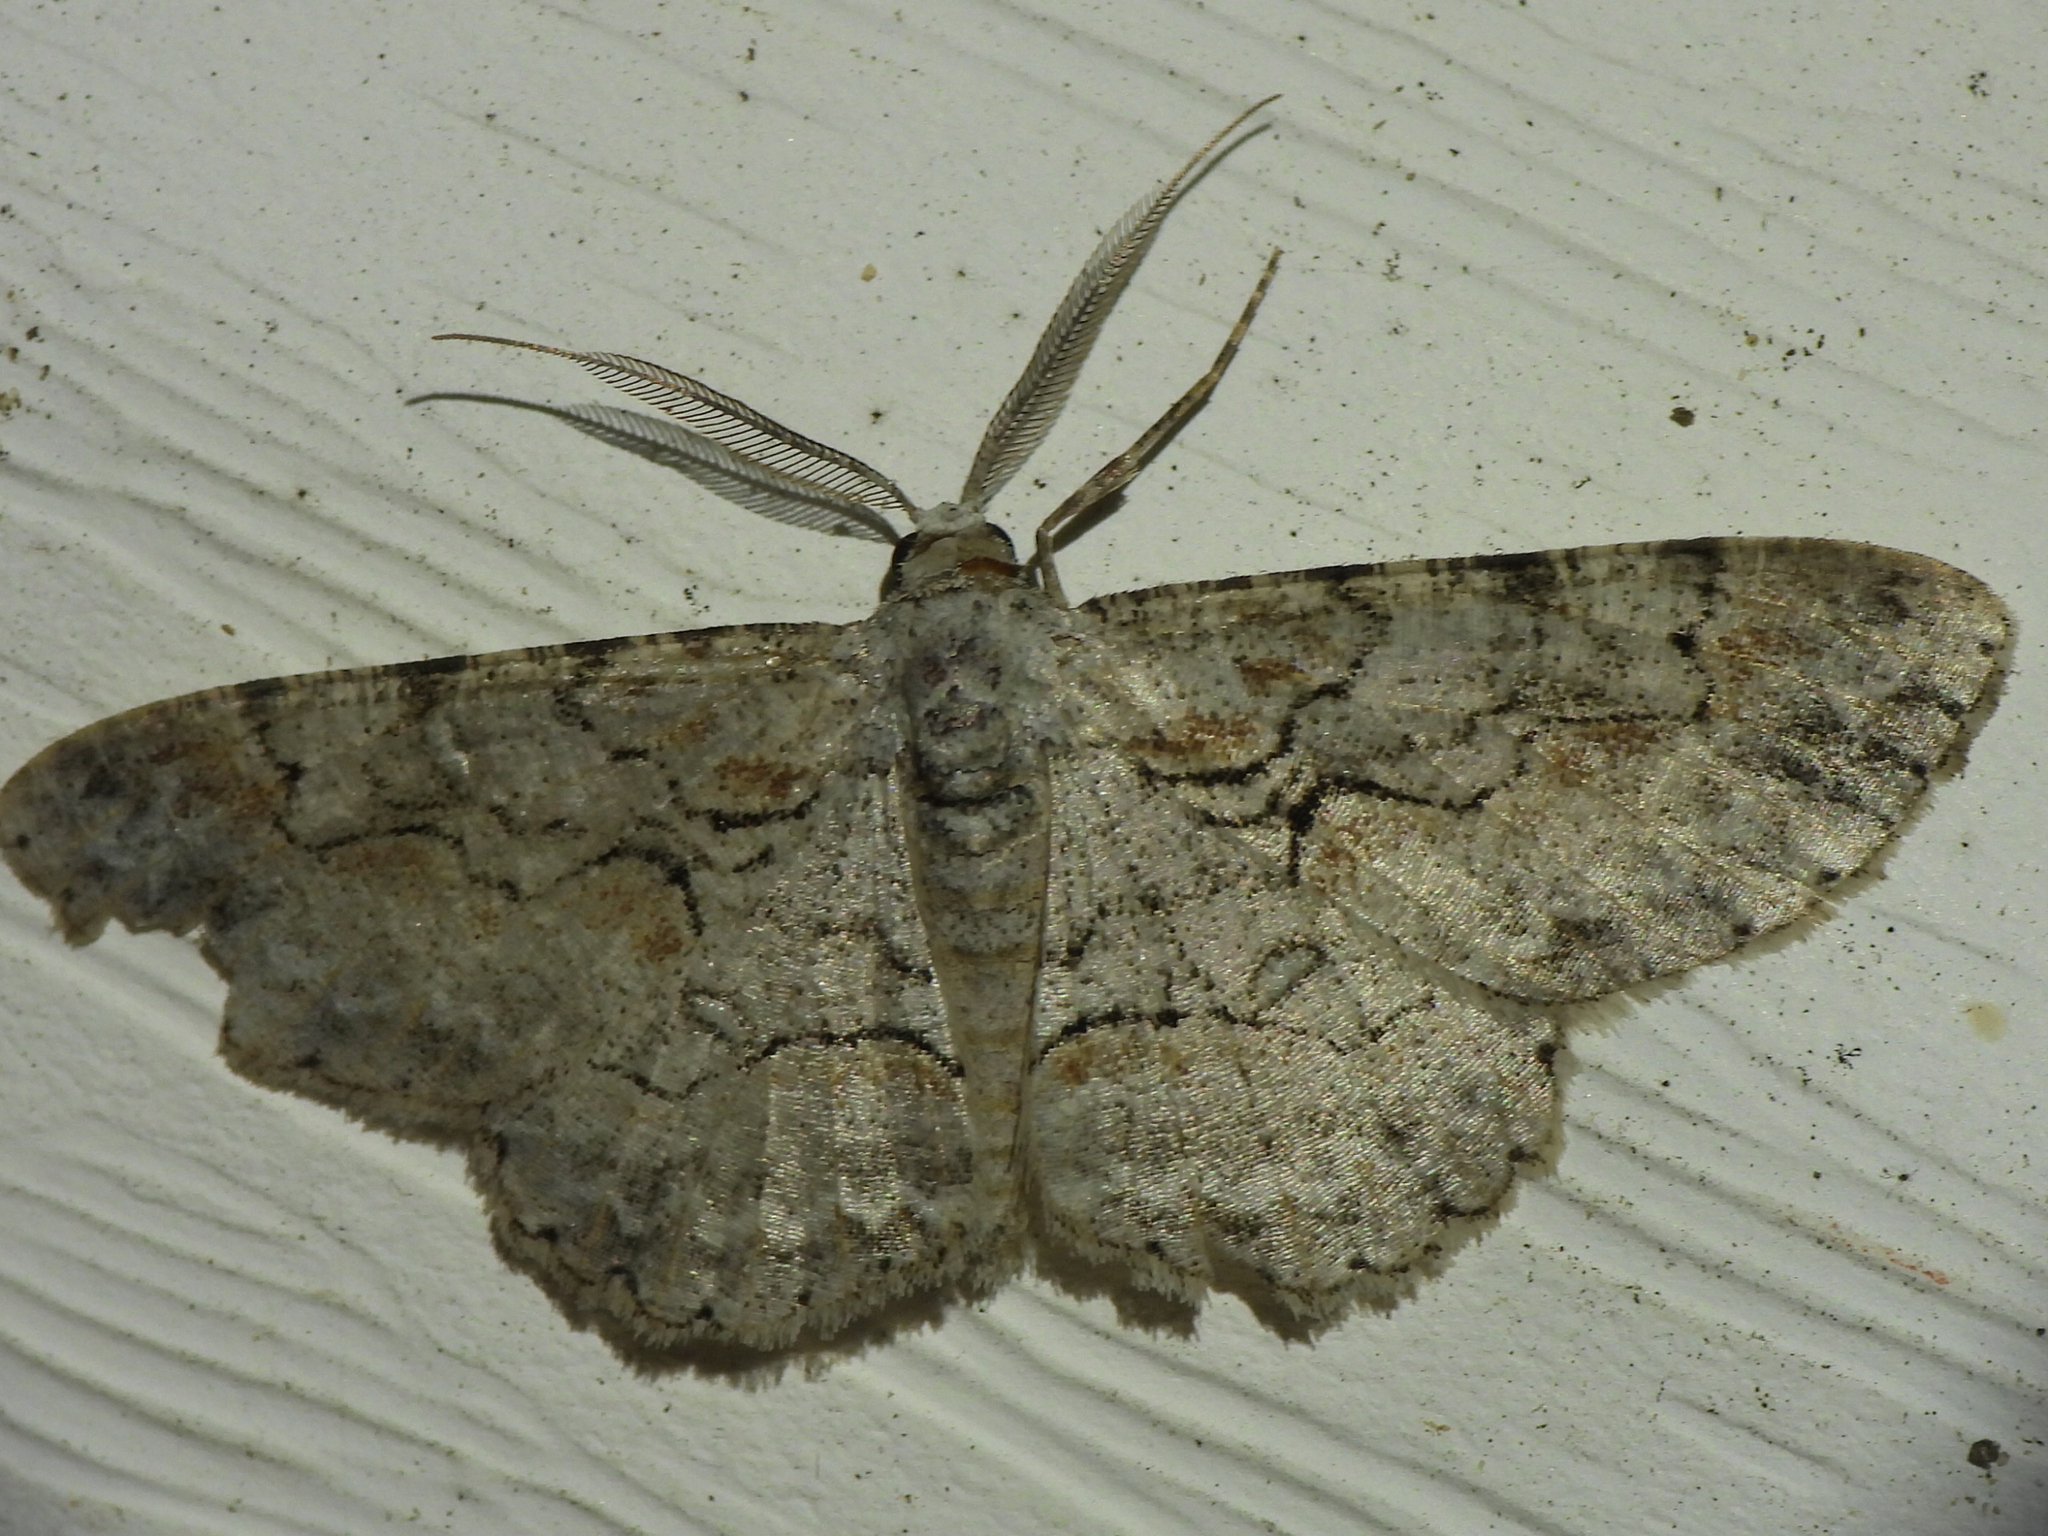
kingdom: Animalia
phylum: Arthropoda
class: Insecta
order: Lepidoptera
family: Geometridae
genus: Iridopsis
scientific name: Iridopsis defectaria
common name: Brown-shaded gray
